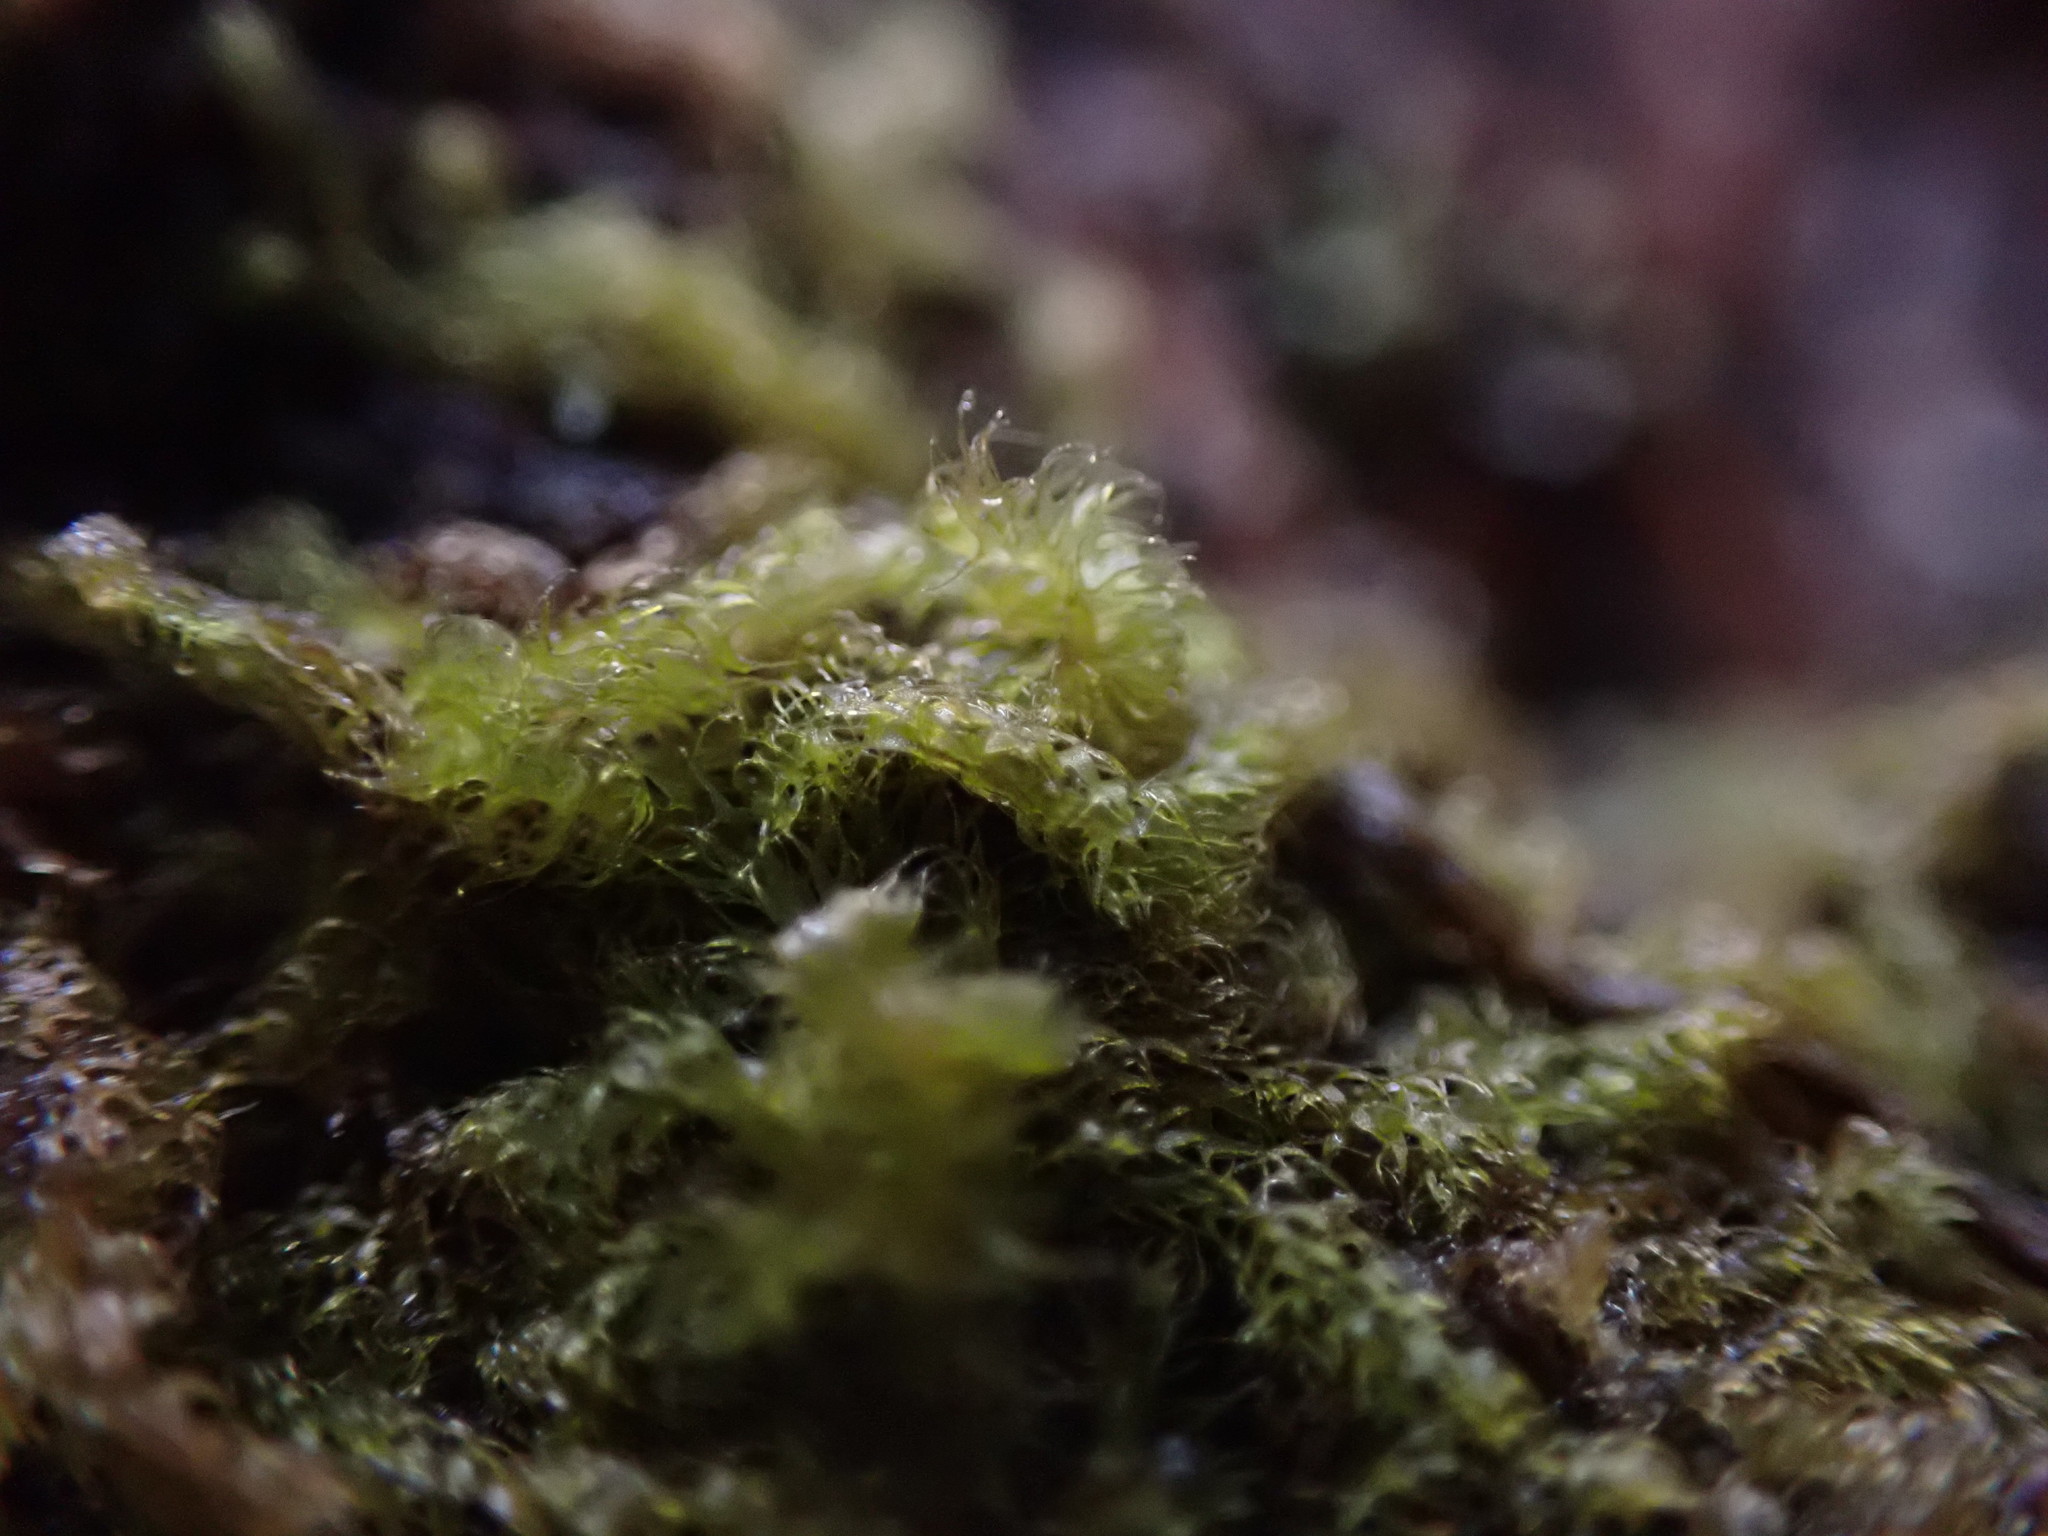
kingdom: Plantae
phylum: Marchantiophyta
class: Jungermanniopsida
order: Ptilidiales
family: Ptilidiaceae
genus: Ptilidium
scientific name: Ptilidium californicum
